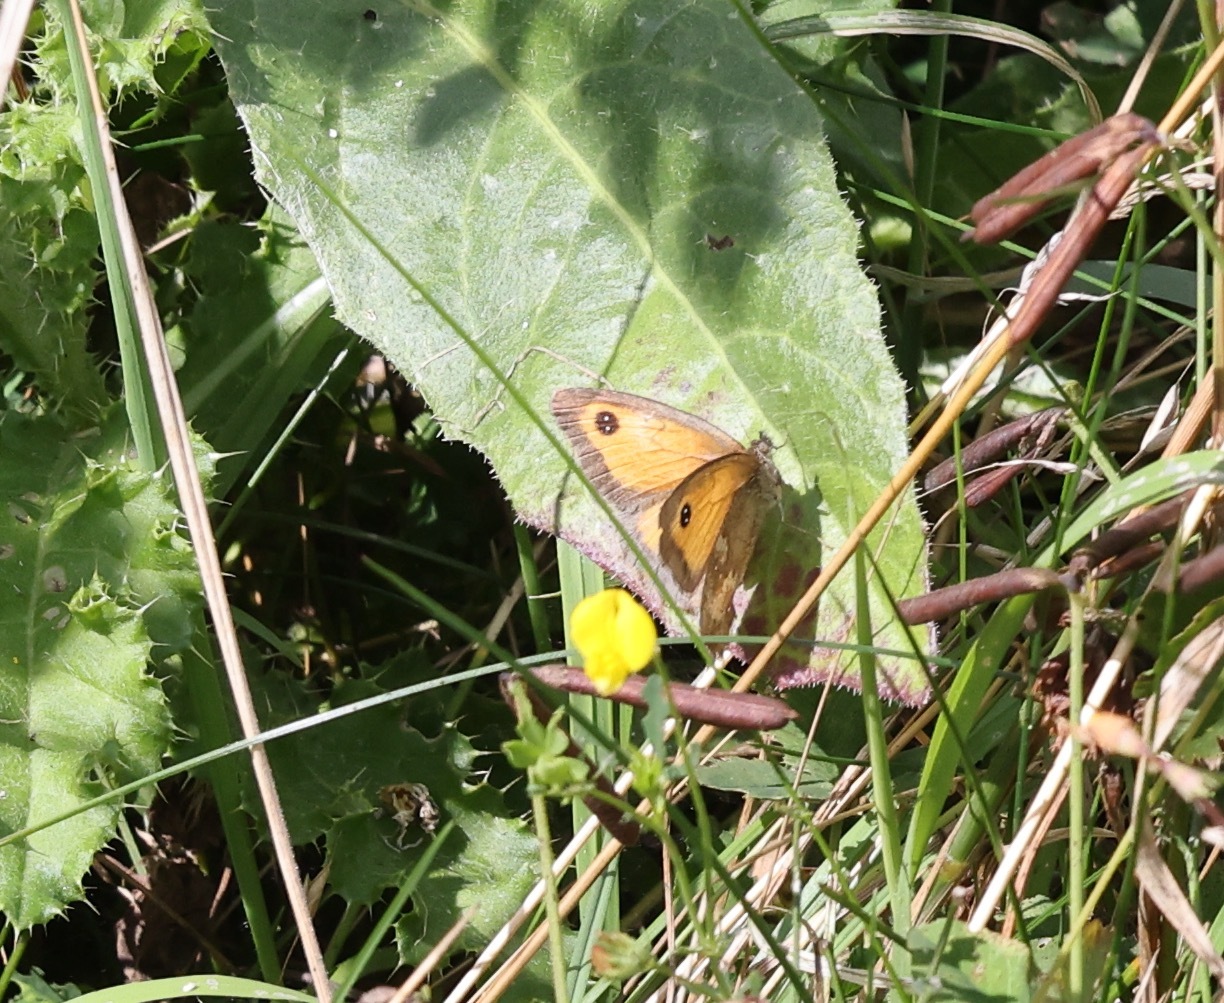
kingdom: Animalia
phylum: Arthropoda
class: Insecta
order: Lepidoptera
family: Nymphalidae
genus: Pyronia
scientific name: Pyronia tithonus
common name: Gatekeeper
